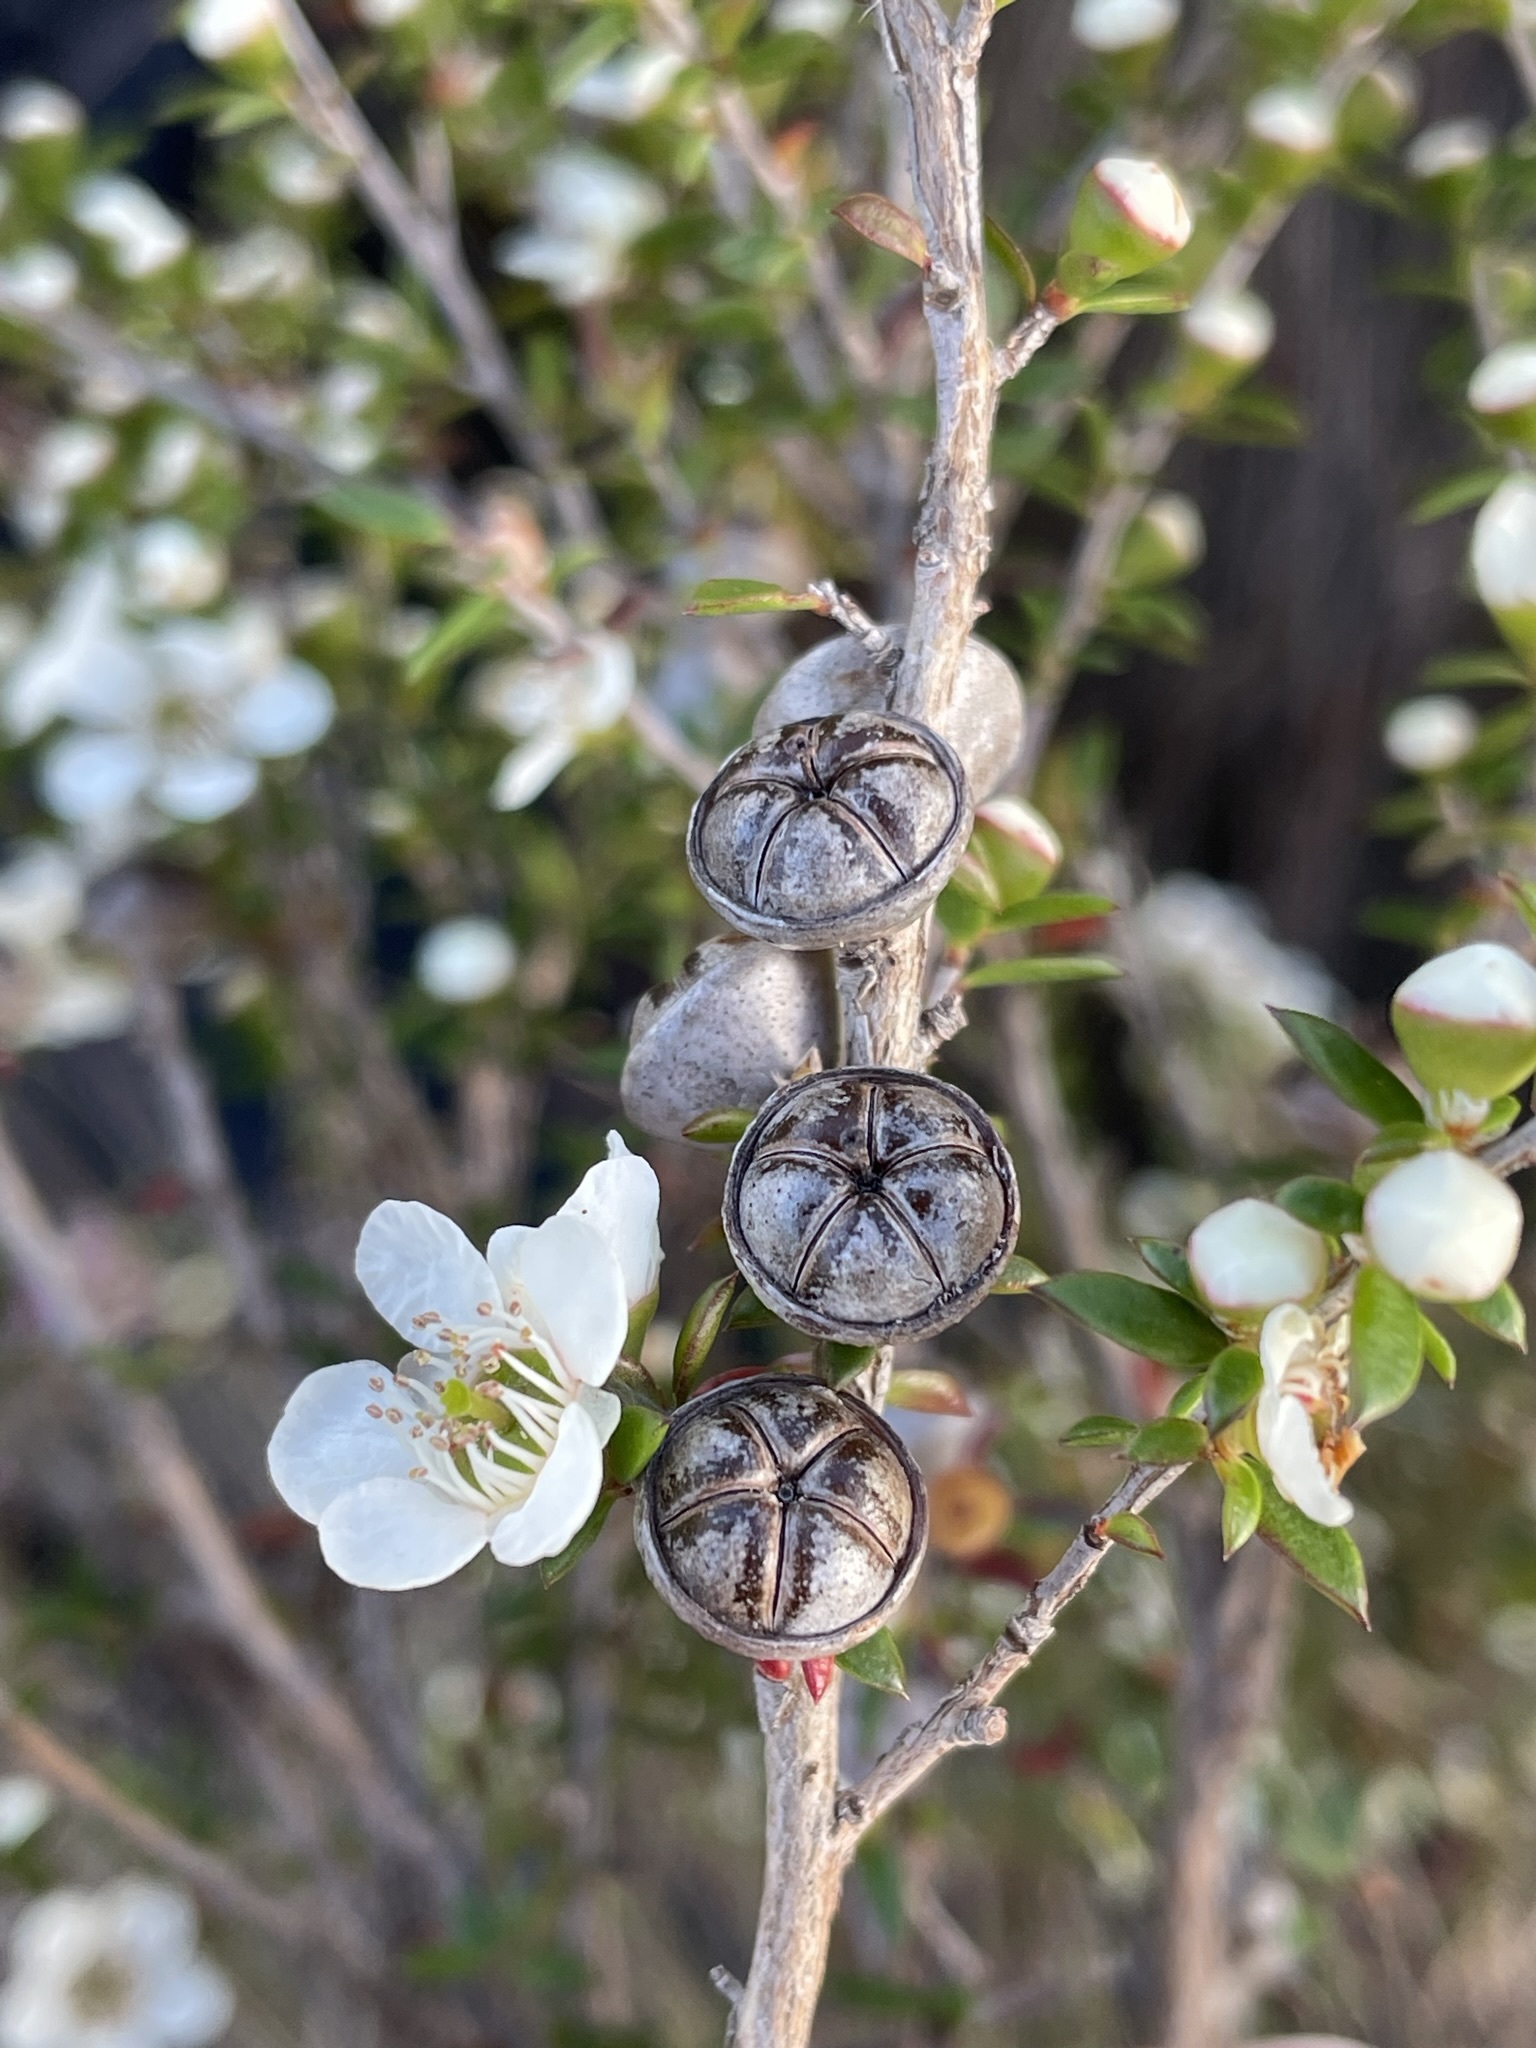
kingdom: Plantae
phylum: Tracheophyta
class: Magnoliopsida
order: Myrtales
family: Myrtaceae
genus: Leptospermum
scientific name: Leptospermum scoparium
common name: Broom tea-tree
